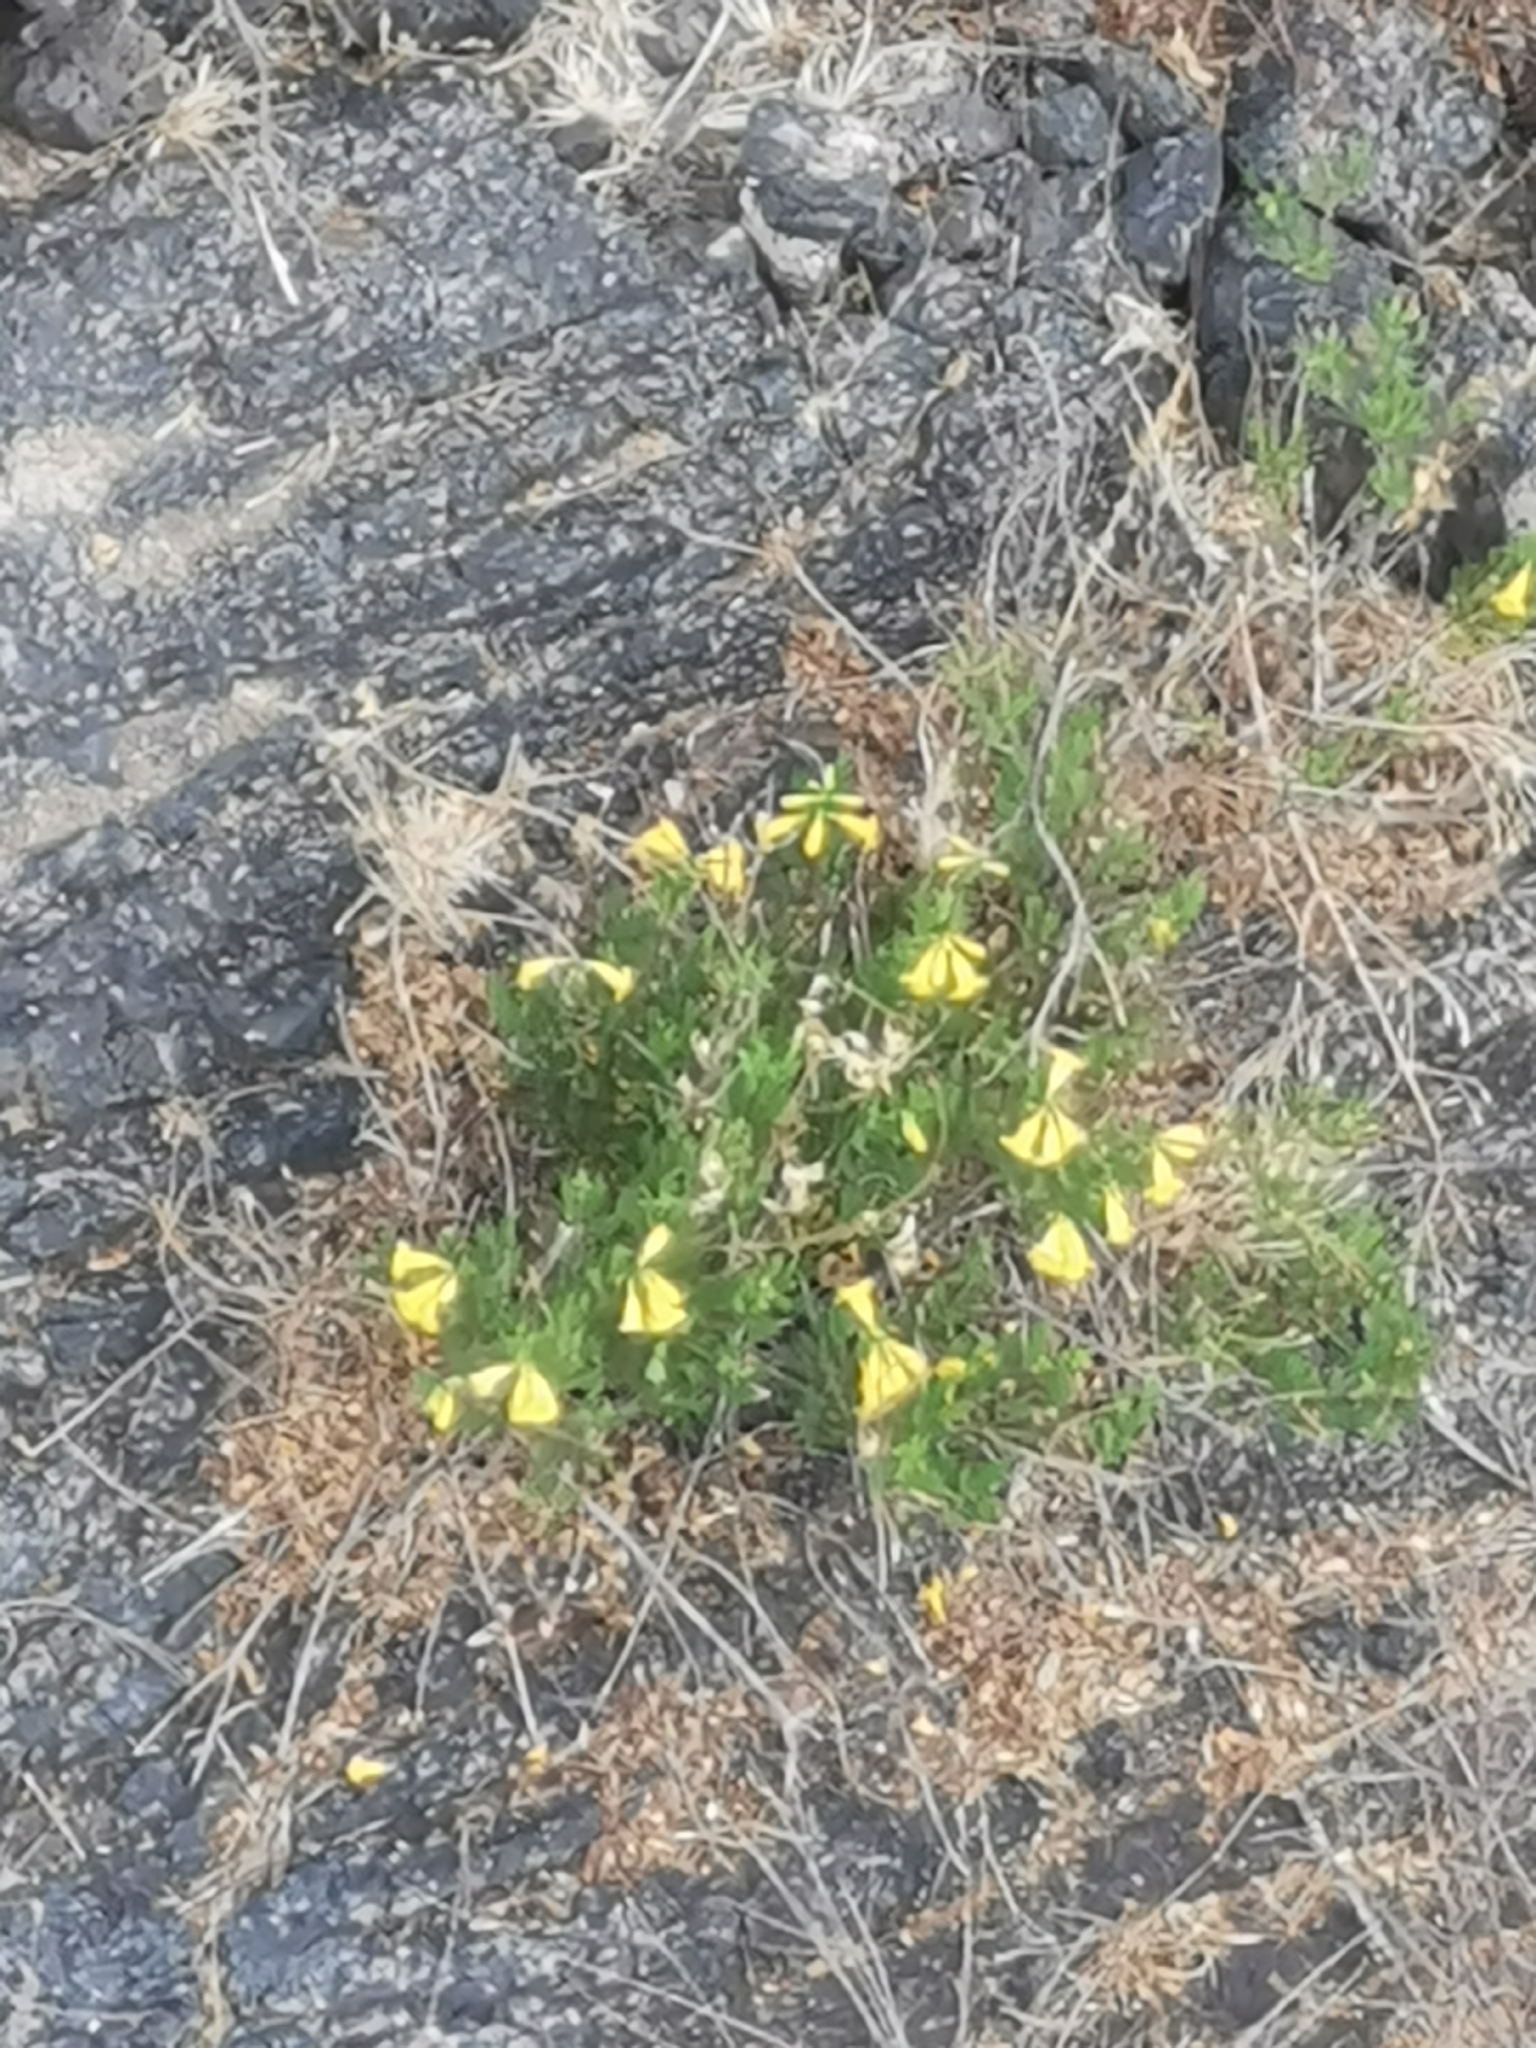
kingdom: Plantae
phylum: Tracheophyta
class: Magnoliopsida
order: Lamiales
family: Bignoniaceae
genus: Tecoma
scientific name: Tecoma stans
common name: Yellow trumpetbush
